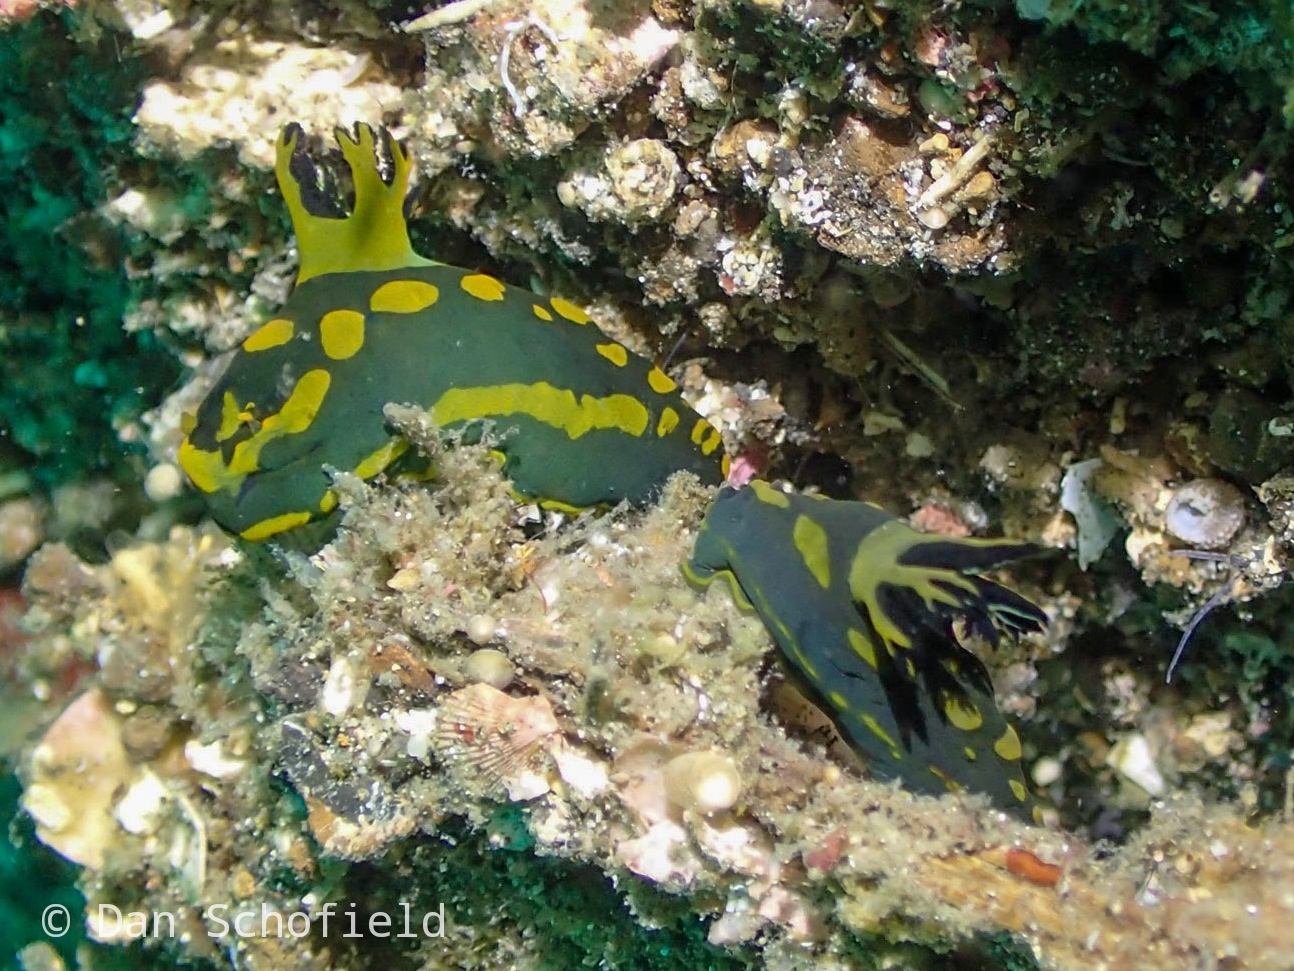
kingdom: Animalia
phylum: Mollusca
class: Gastropoda
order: Nudibranchia
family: Polyceridae
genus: Tambja
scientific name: Tambja gabrielae
